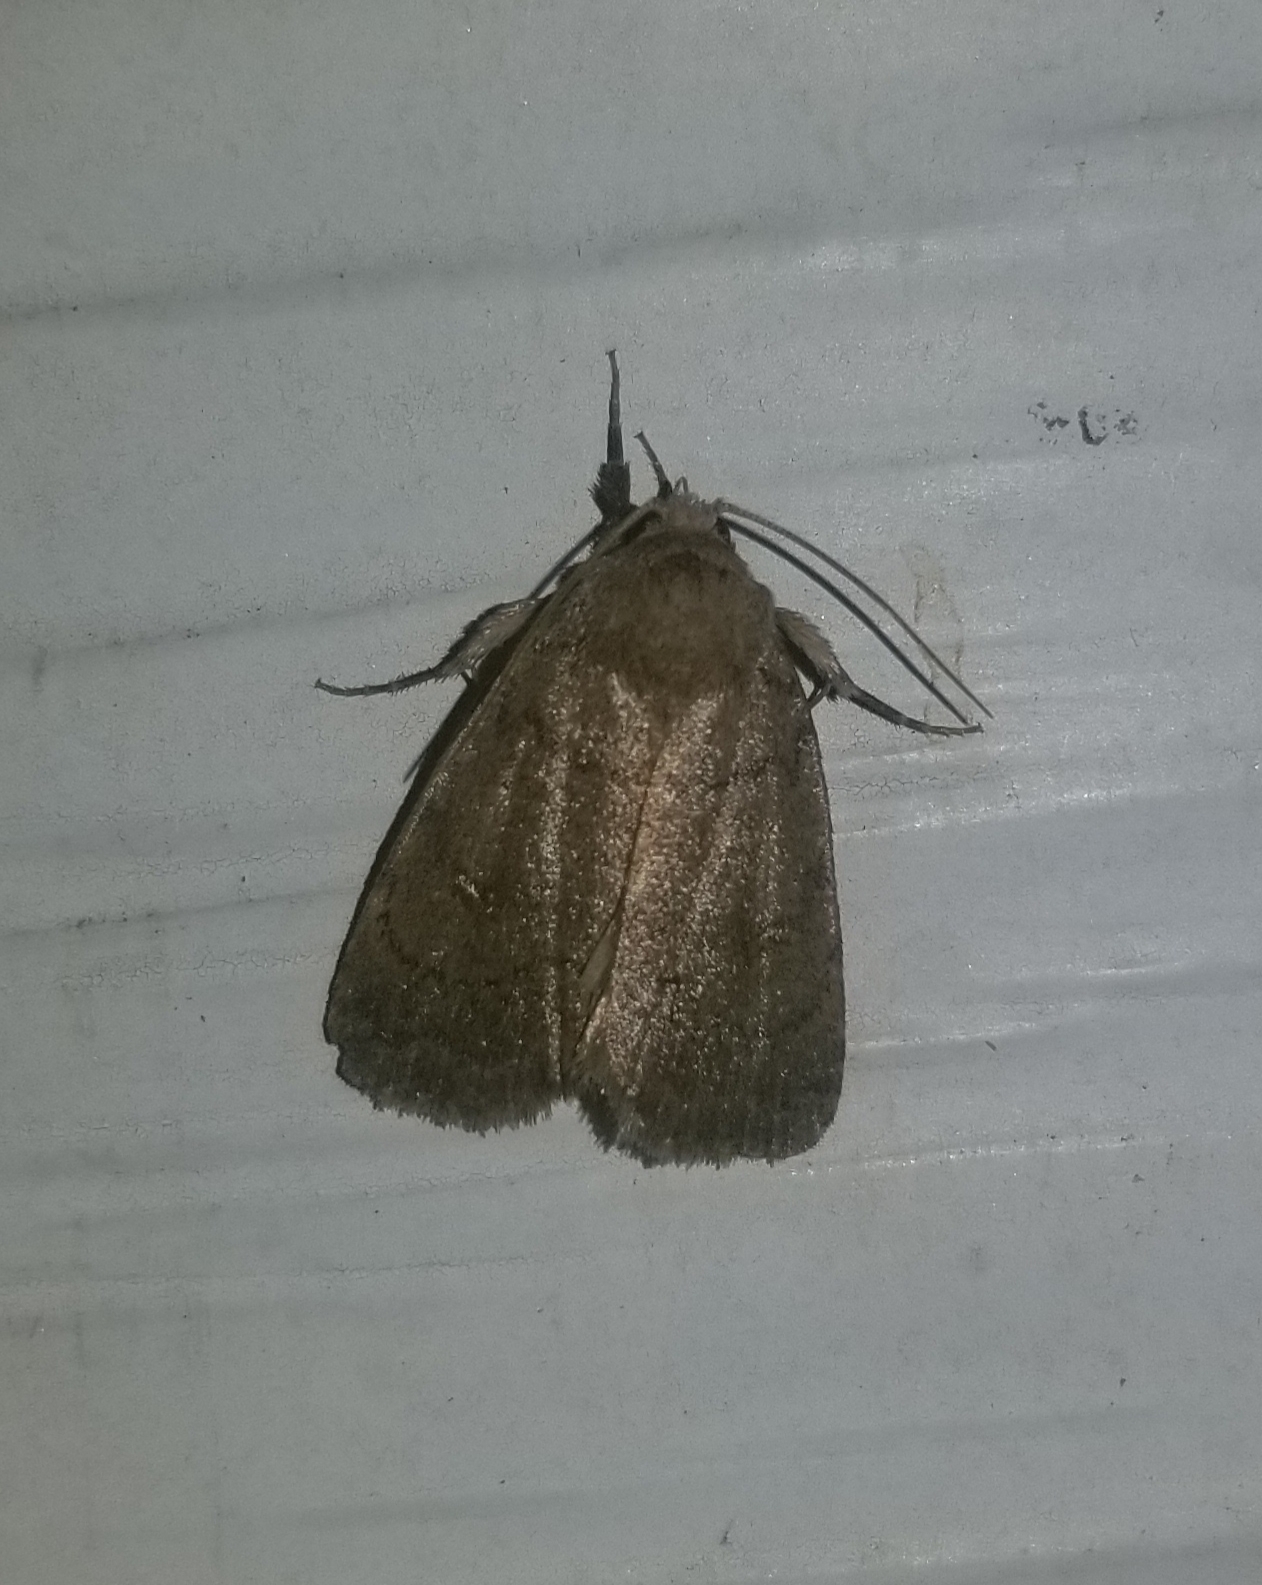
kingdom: Animalia
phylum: Arthropoda
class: Insecta
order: Lepidoptera
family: Noctuidae
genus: Athetis
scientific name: Athetis tarda
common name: Slowpoke moth
